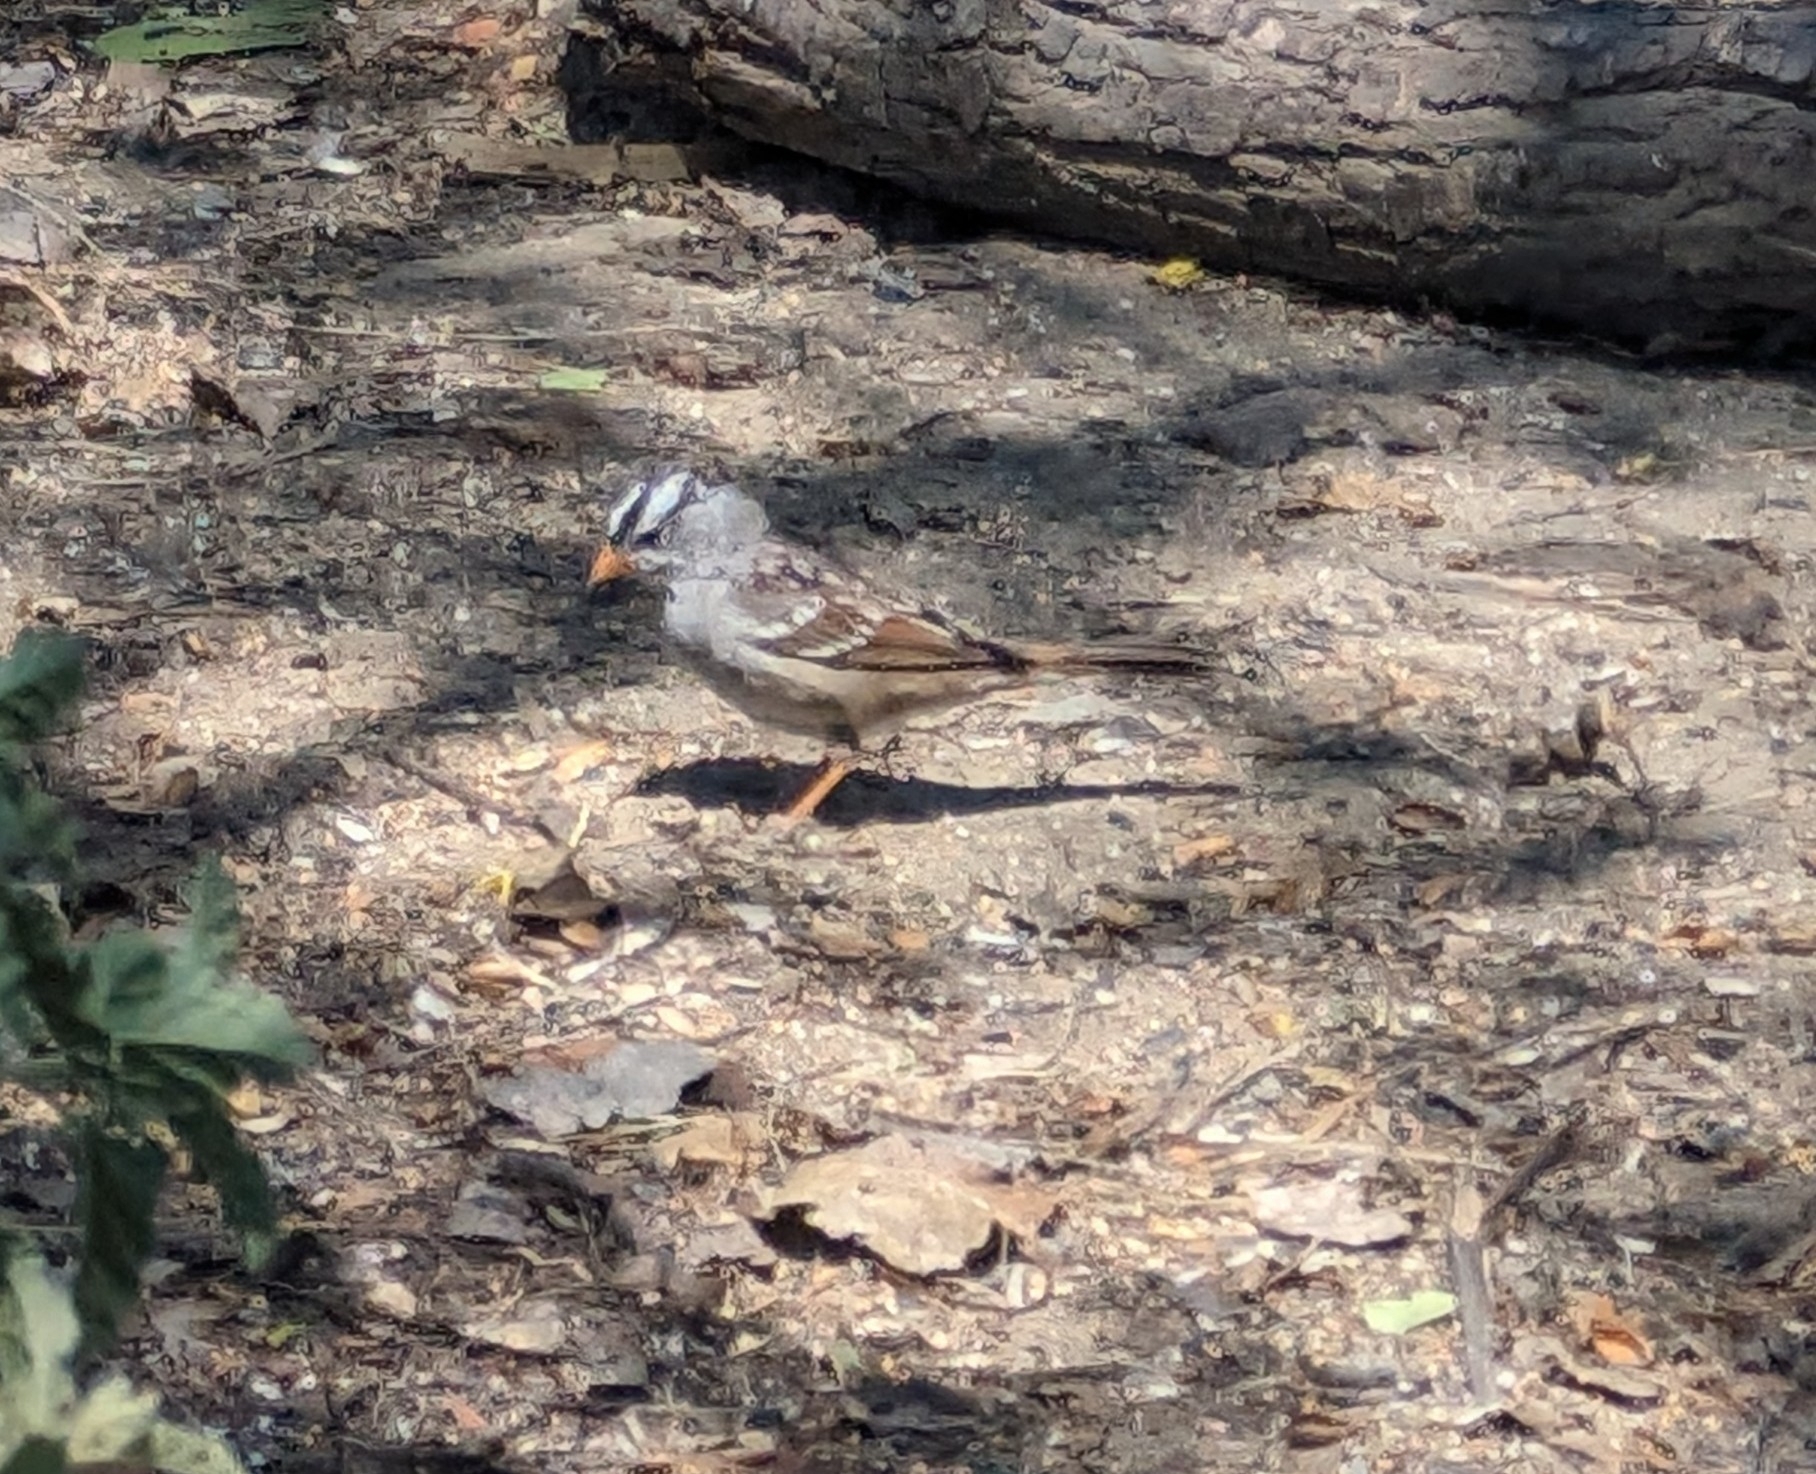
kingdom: Animalia
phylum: Chordata
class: Aves
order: Passeriformes
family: Passerellidae
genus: Zonotrichia
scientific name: Zonotrichia leucophrys
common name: White-crowned sparrow
